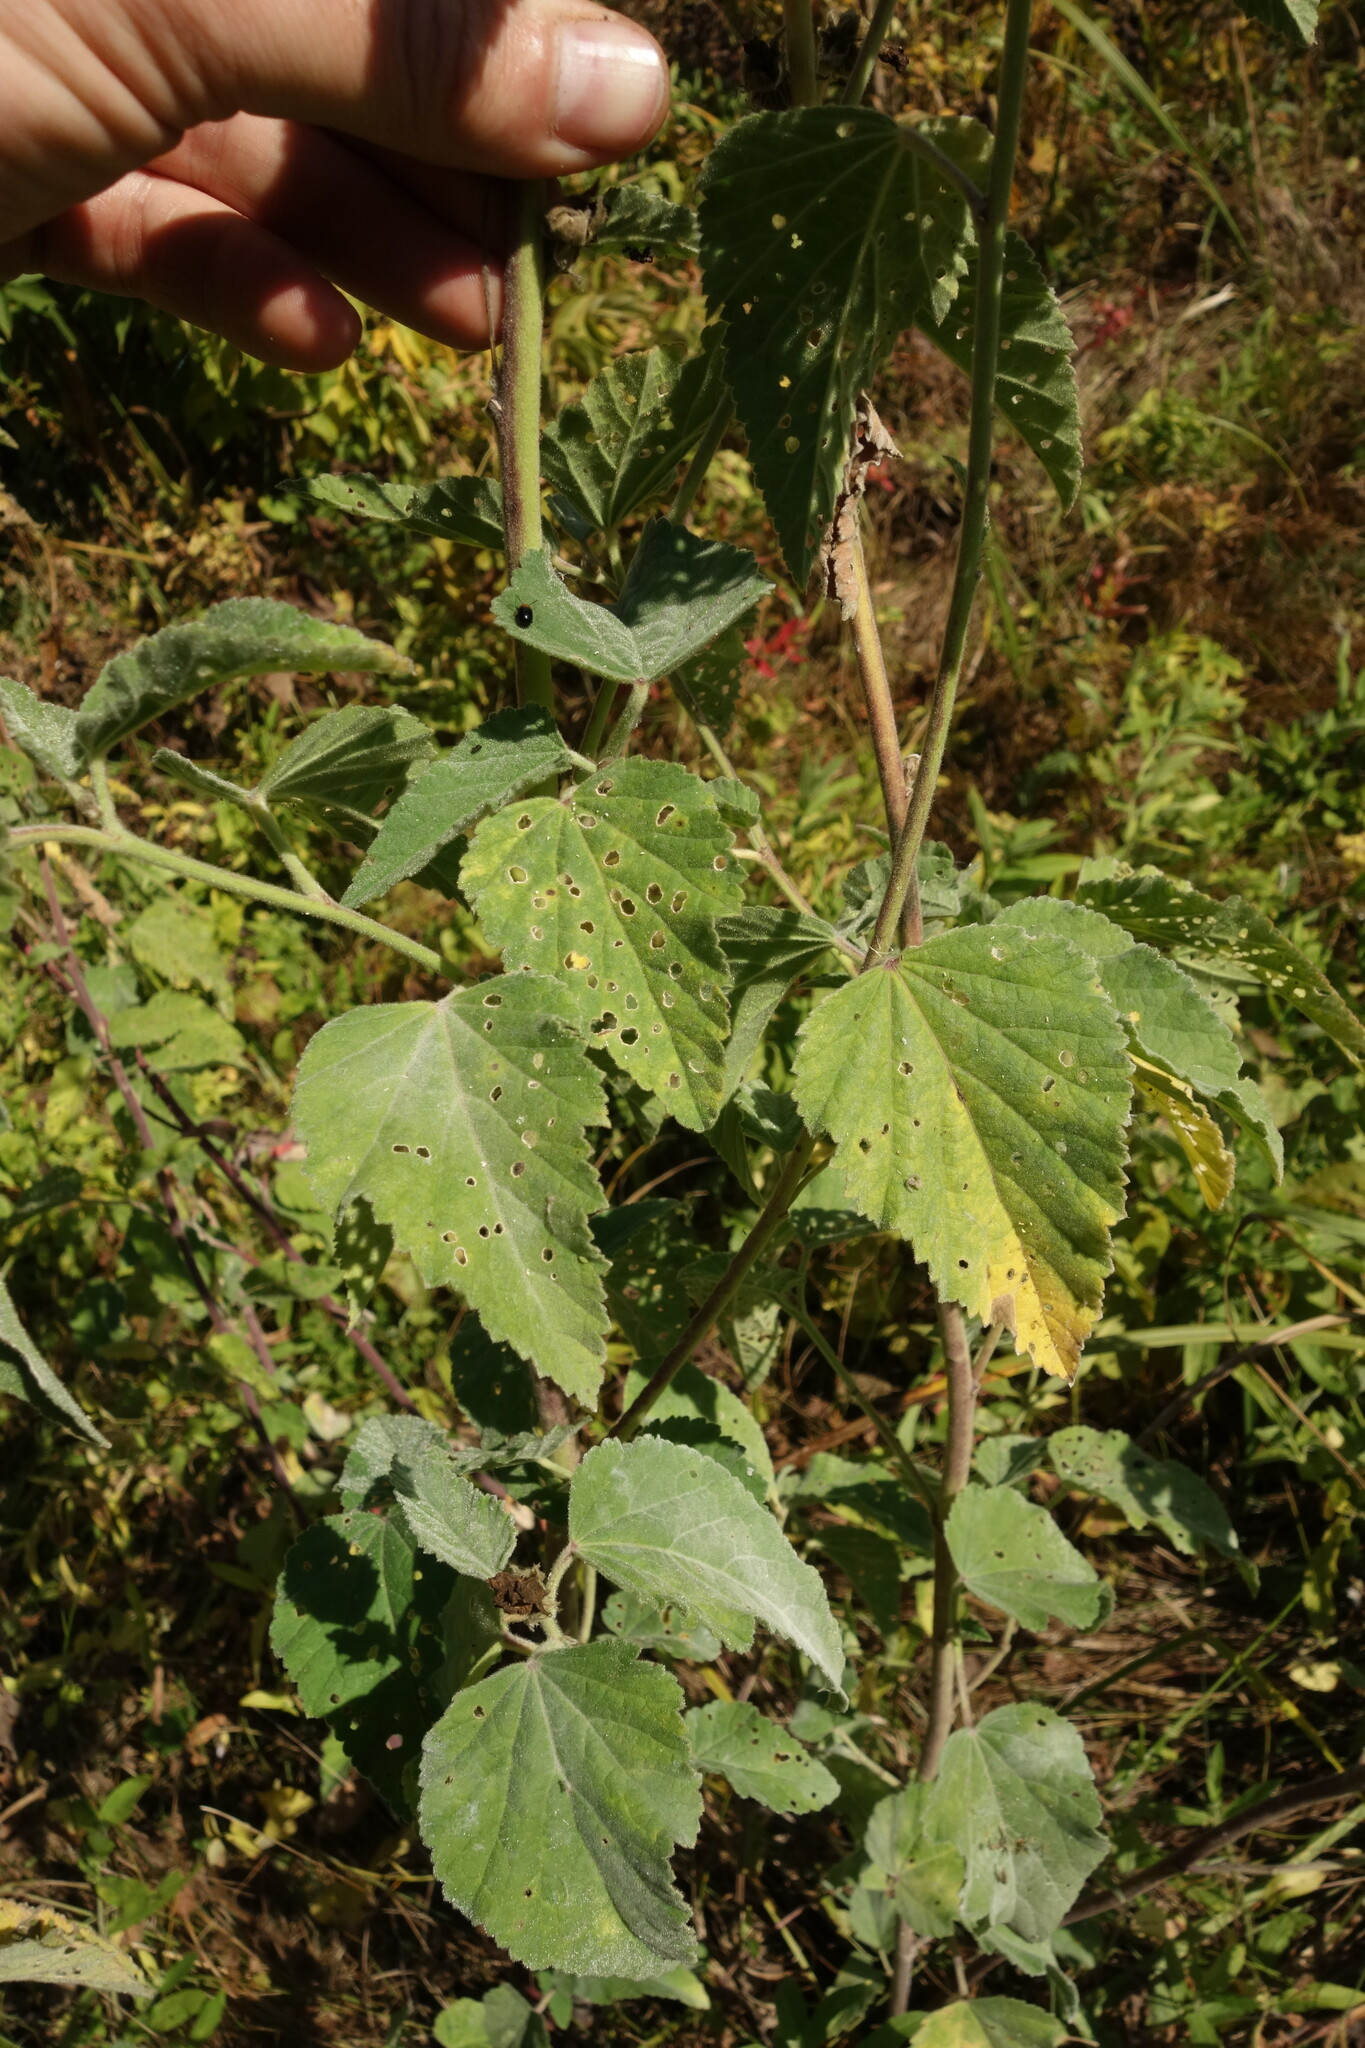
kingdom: Plantae
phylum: Tracheophyta
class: Magnoliopsida
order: Malvales
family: Malvaceae
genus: Althaea
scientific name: Althaea officinalis
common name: Marsh-mallow
